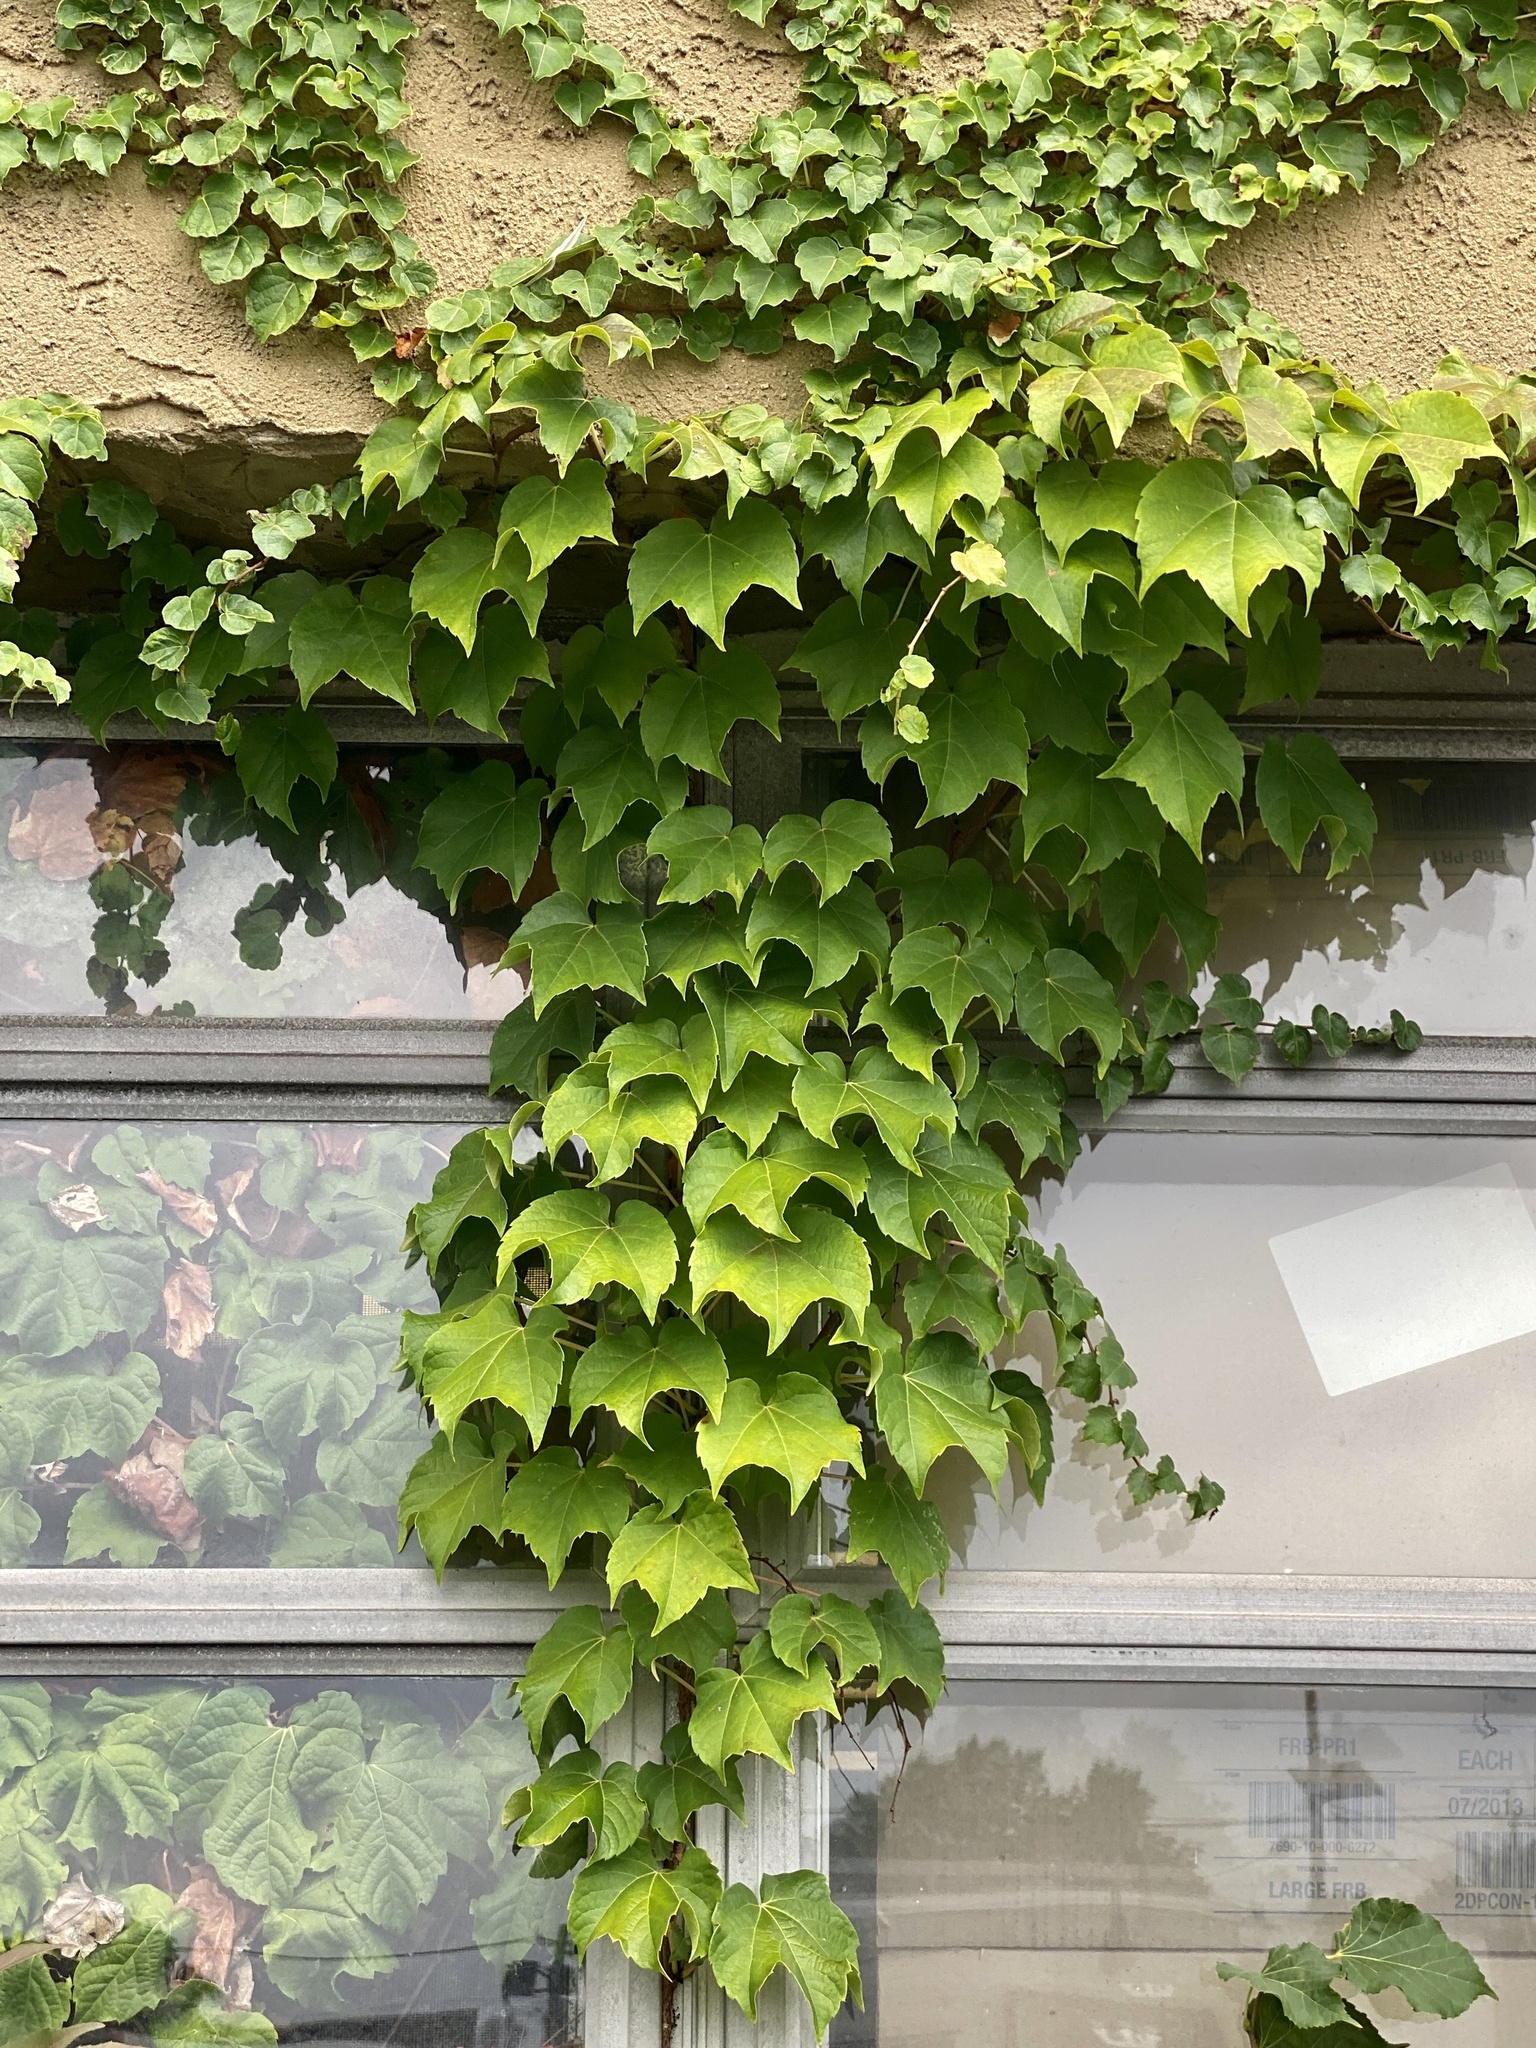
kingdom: Plantae
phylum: Tracheophyta
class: Magnoliopsida
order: Vitales
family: Vitaceae
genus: Parthenocissus
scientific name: Parthenocissus tricuspidata
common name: Boston ivy
